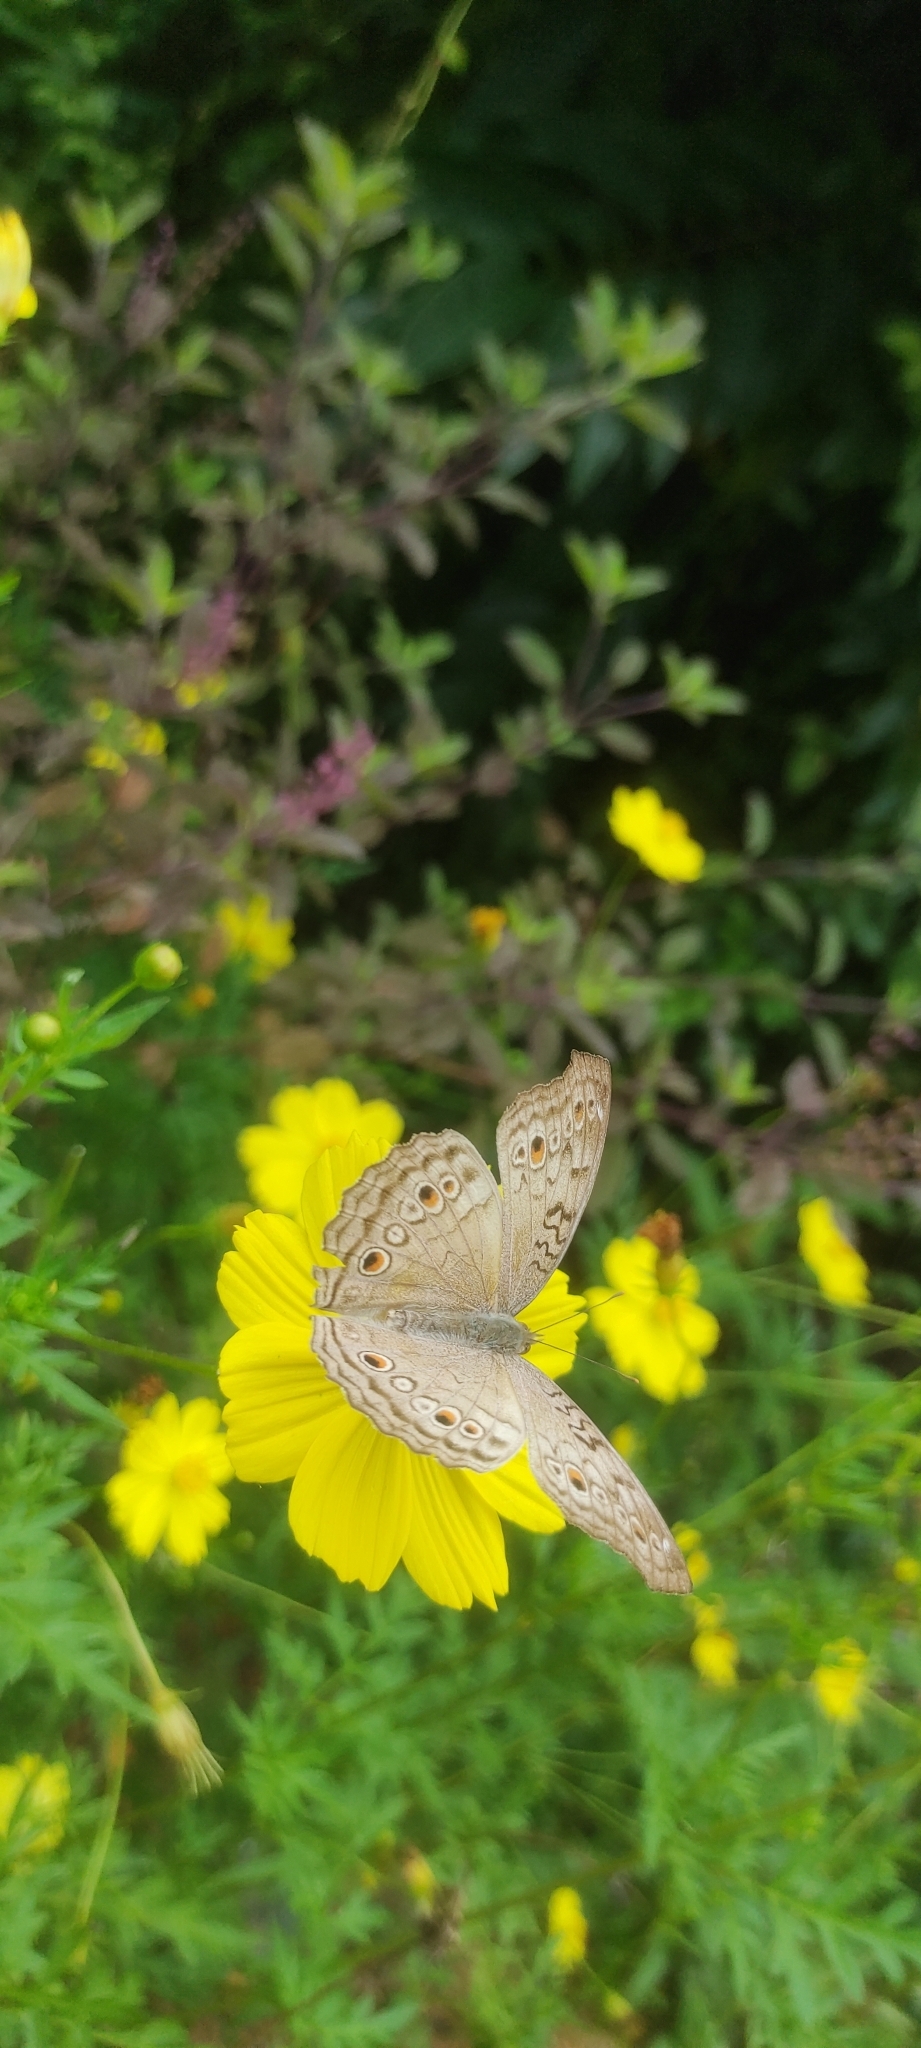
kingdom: Animalia
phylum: Arthropoda
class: Insecta
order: Lepidoptera
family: Nymphalidae
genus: Junonia
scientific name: Junonia atlites
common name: Grey pansy
